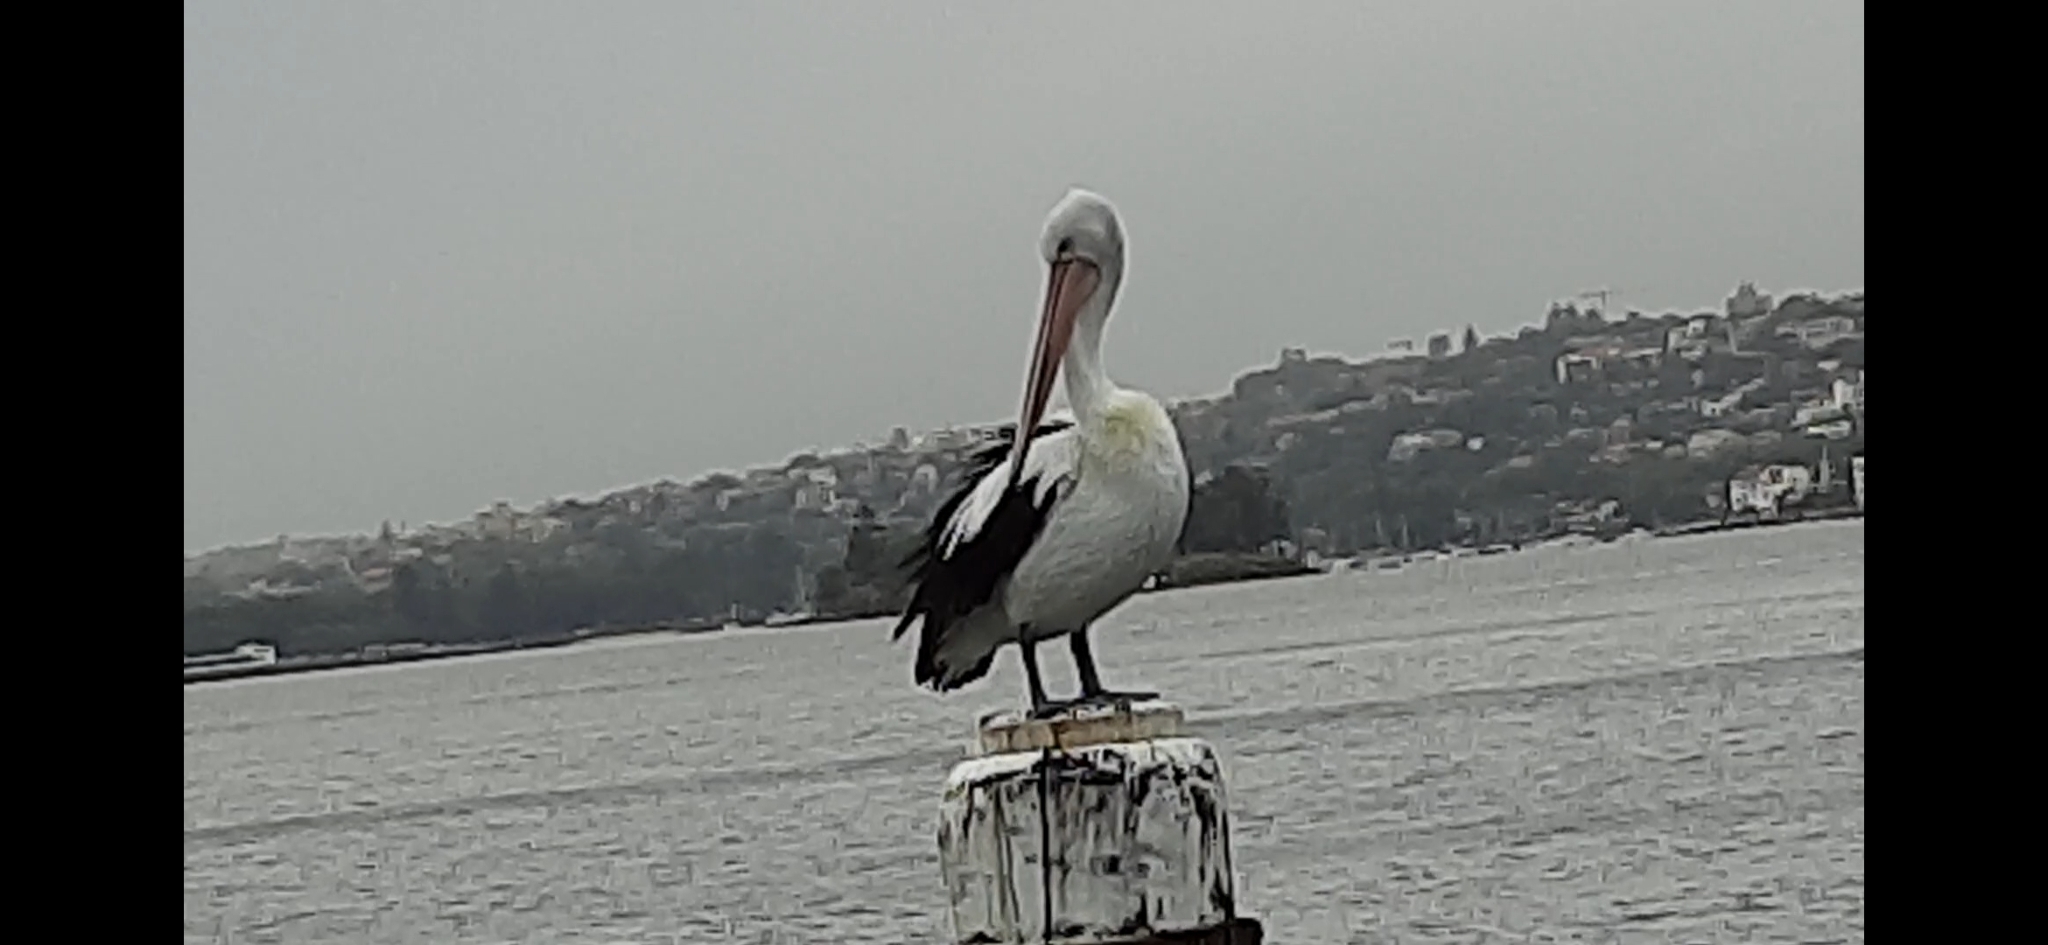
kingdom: Animalia
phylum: Chordata
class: Aves
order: Pelecaniformes
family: Pelecanidae
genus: Pelecanus
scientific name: Pelecanus conspicillatus
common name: Australian pelican
